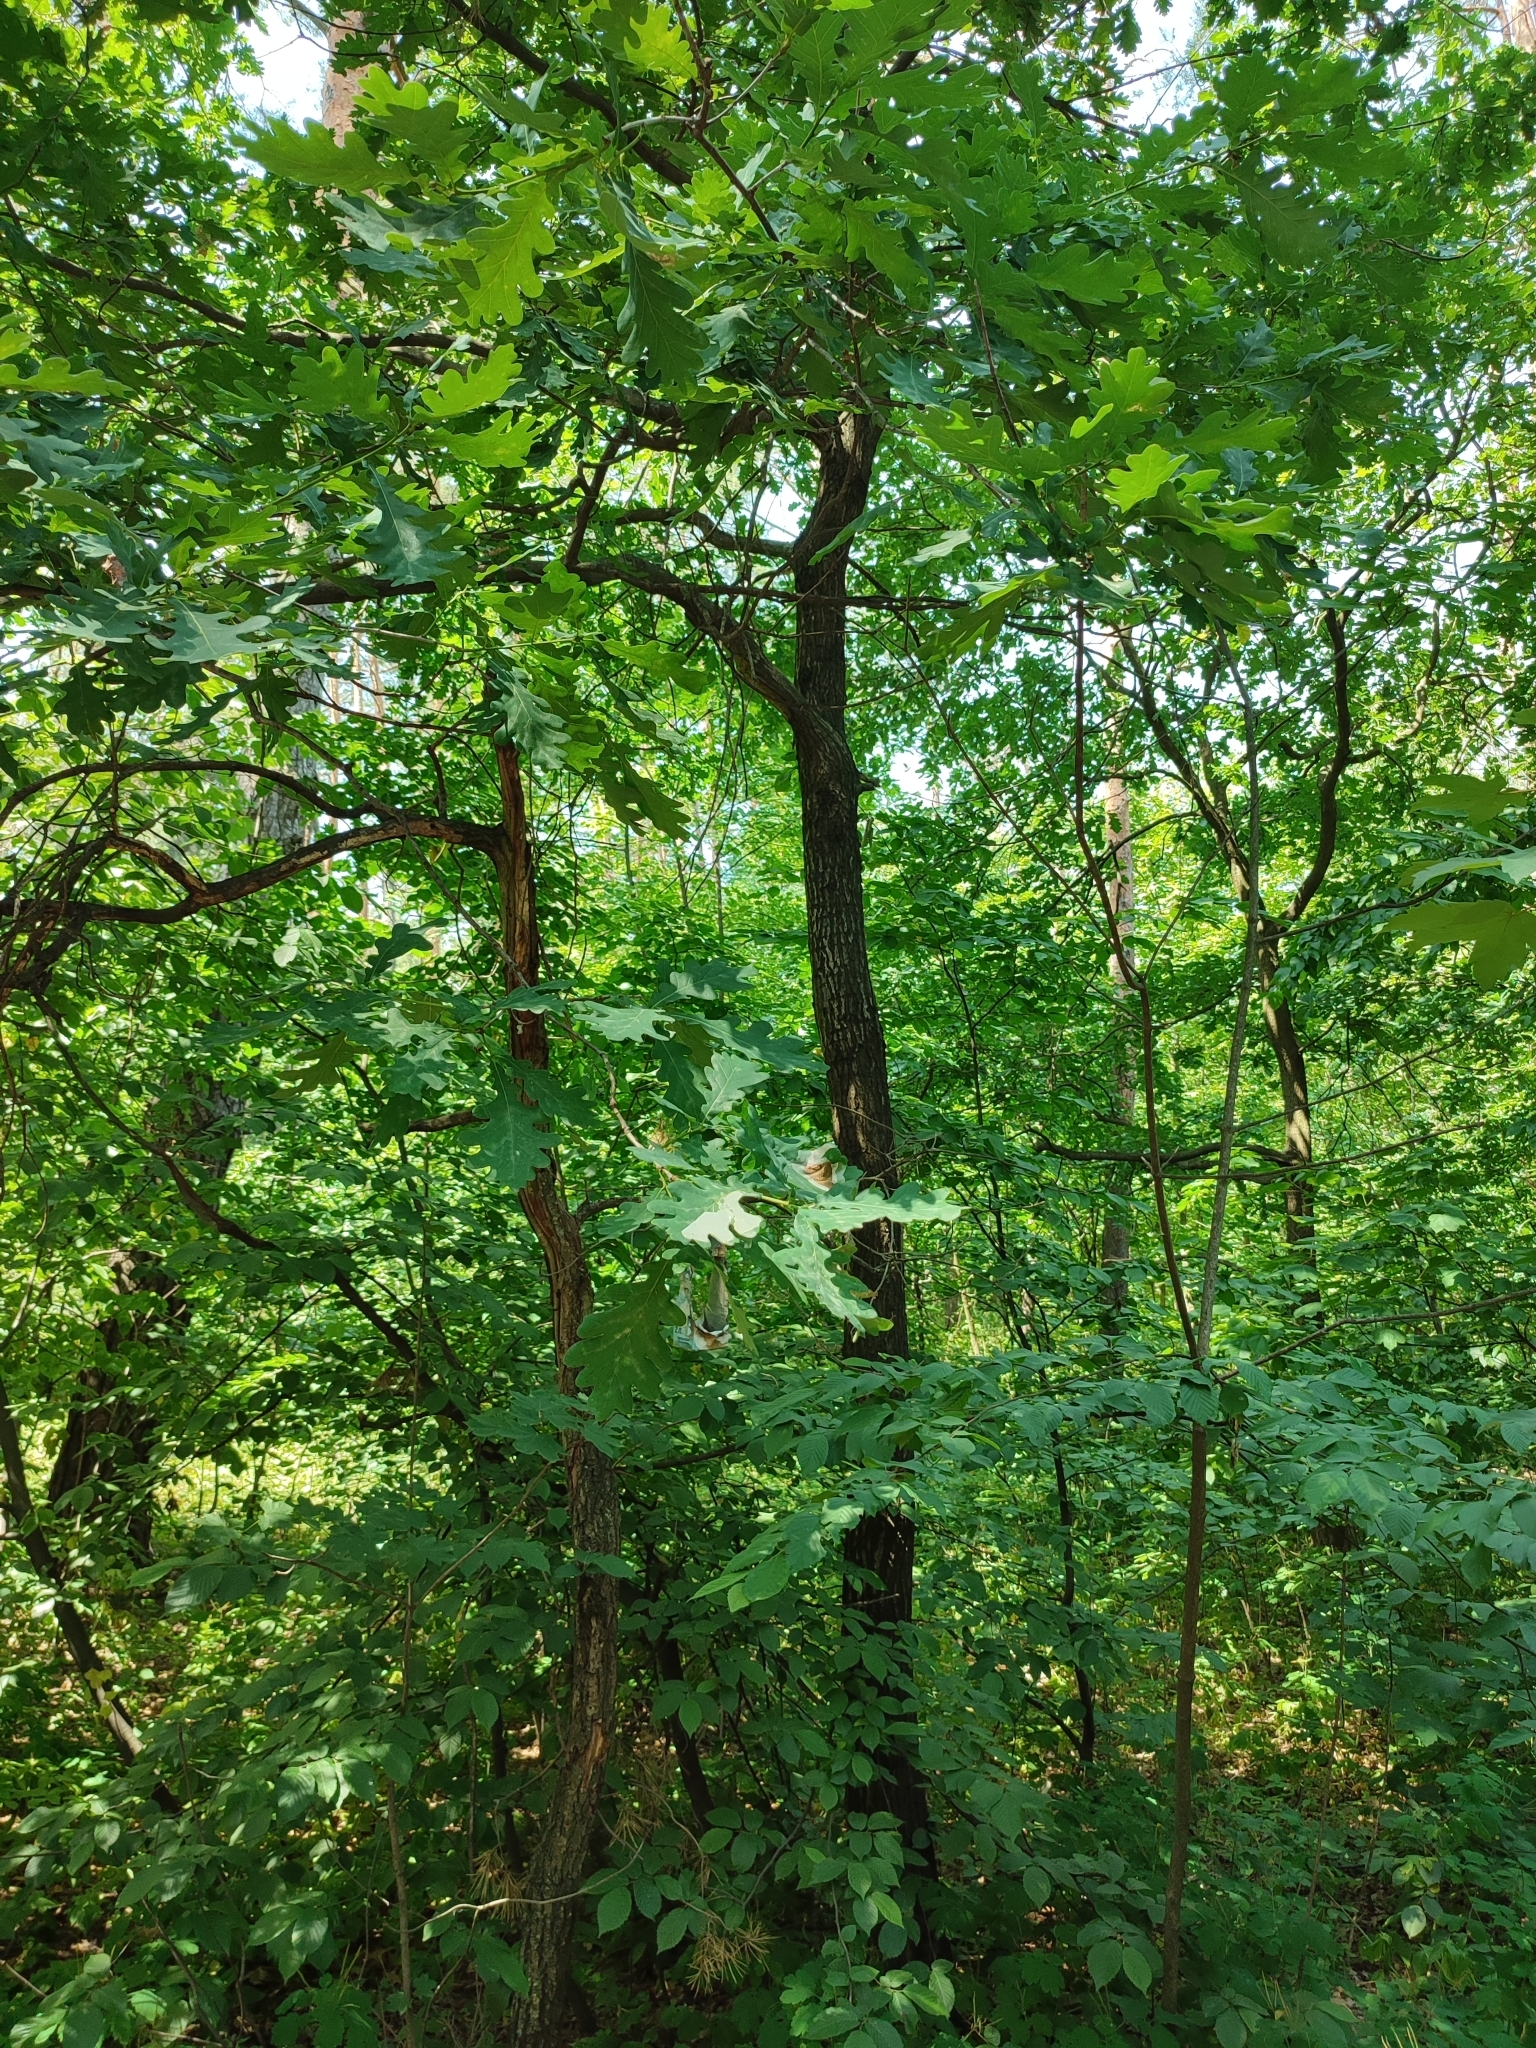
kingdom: Plantae
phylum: Tracheophyta
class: Magnoliopsida
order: Fagales
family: Fagaceae
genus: Quercus
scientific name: Quercus robur
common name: Pedunculate oak
